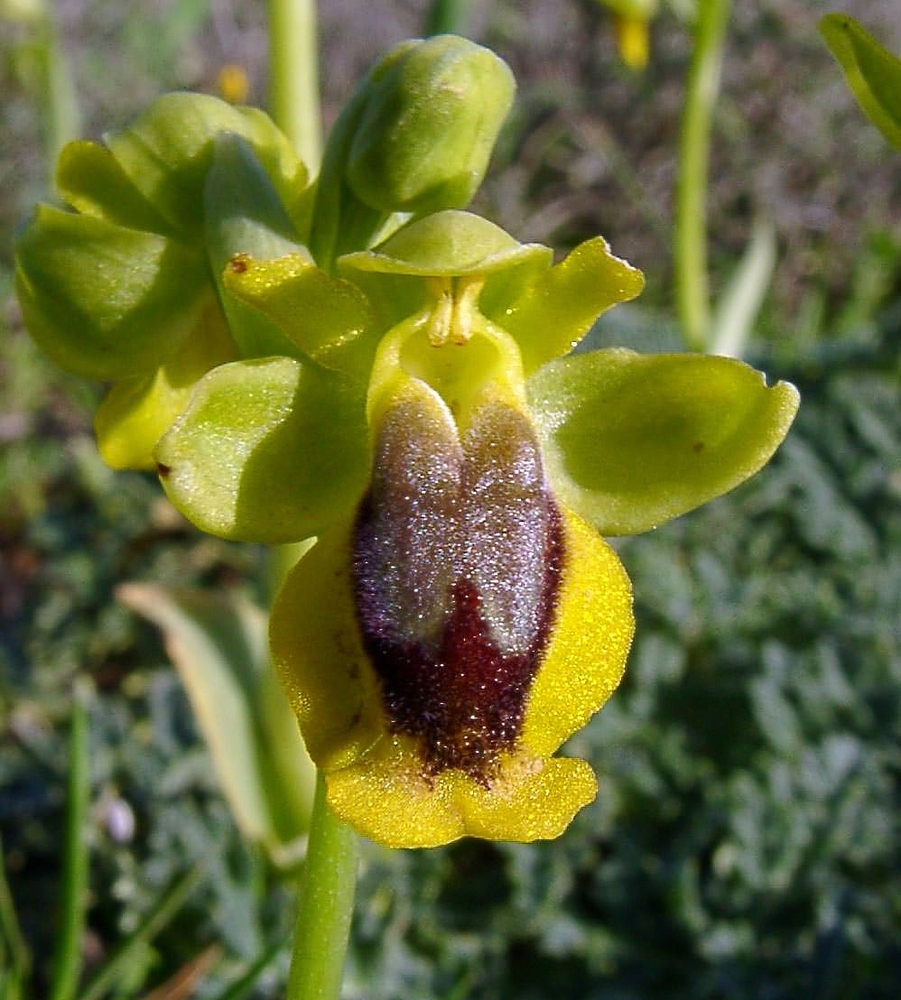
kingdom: Plantae
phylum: Tracheophyta
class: Liliopsida
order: Asparagales
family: Orchidaceae
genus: Ophrys
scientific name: Ophrys lutea
